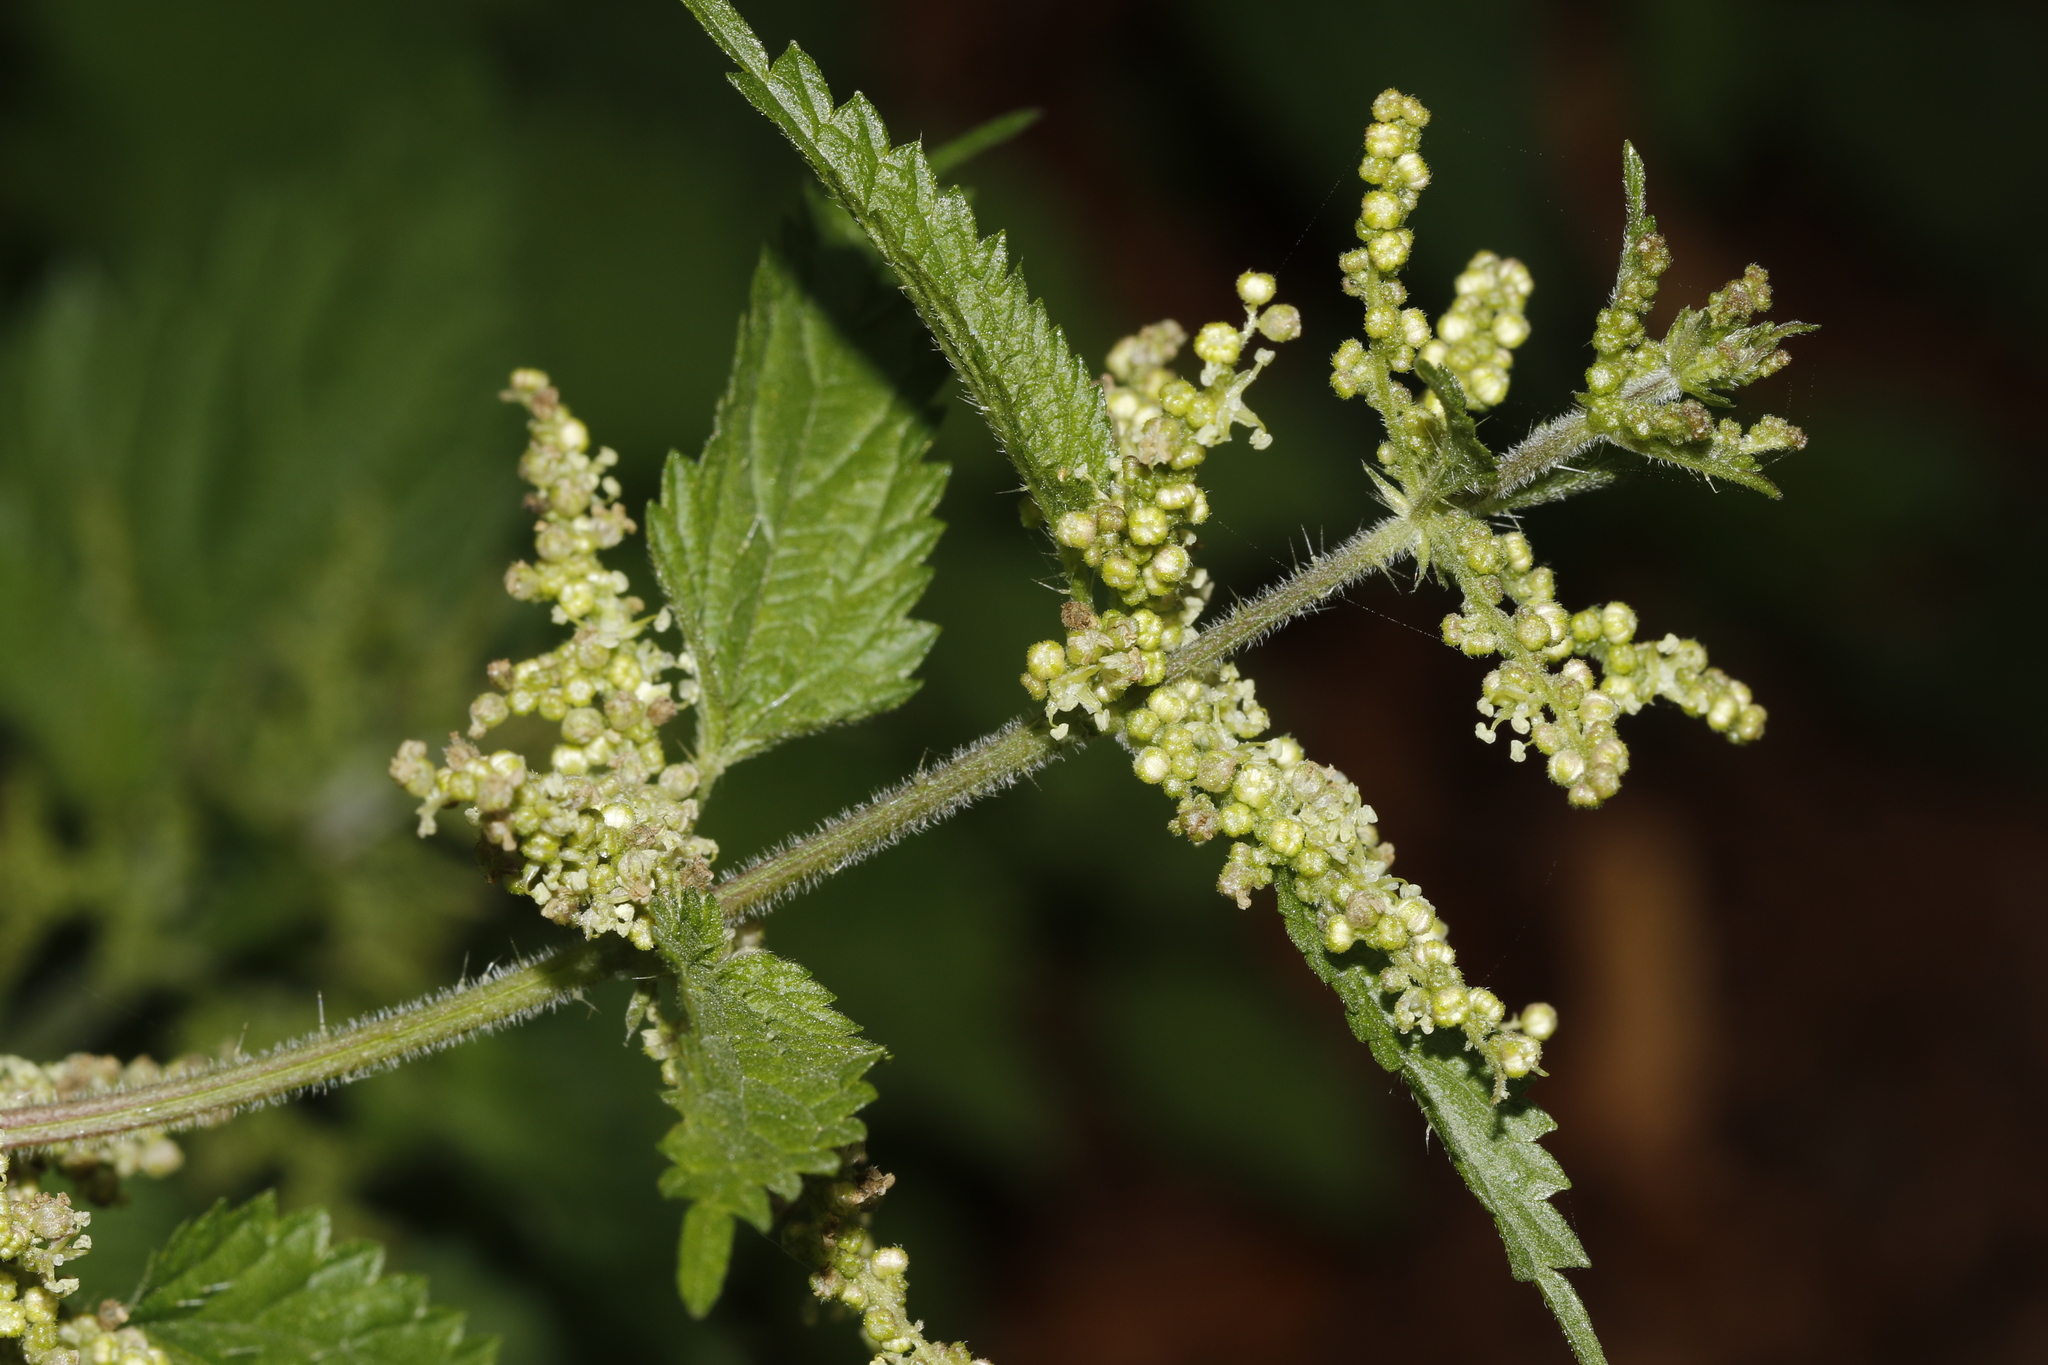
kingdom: Plantae
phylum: Tracheophyta
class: Magnoliopsida
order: Rosales
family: Urticaceae
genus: Urtica
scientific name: Urtica dioica
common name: Common nettle
